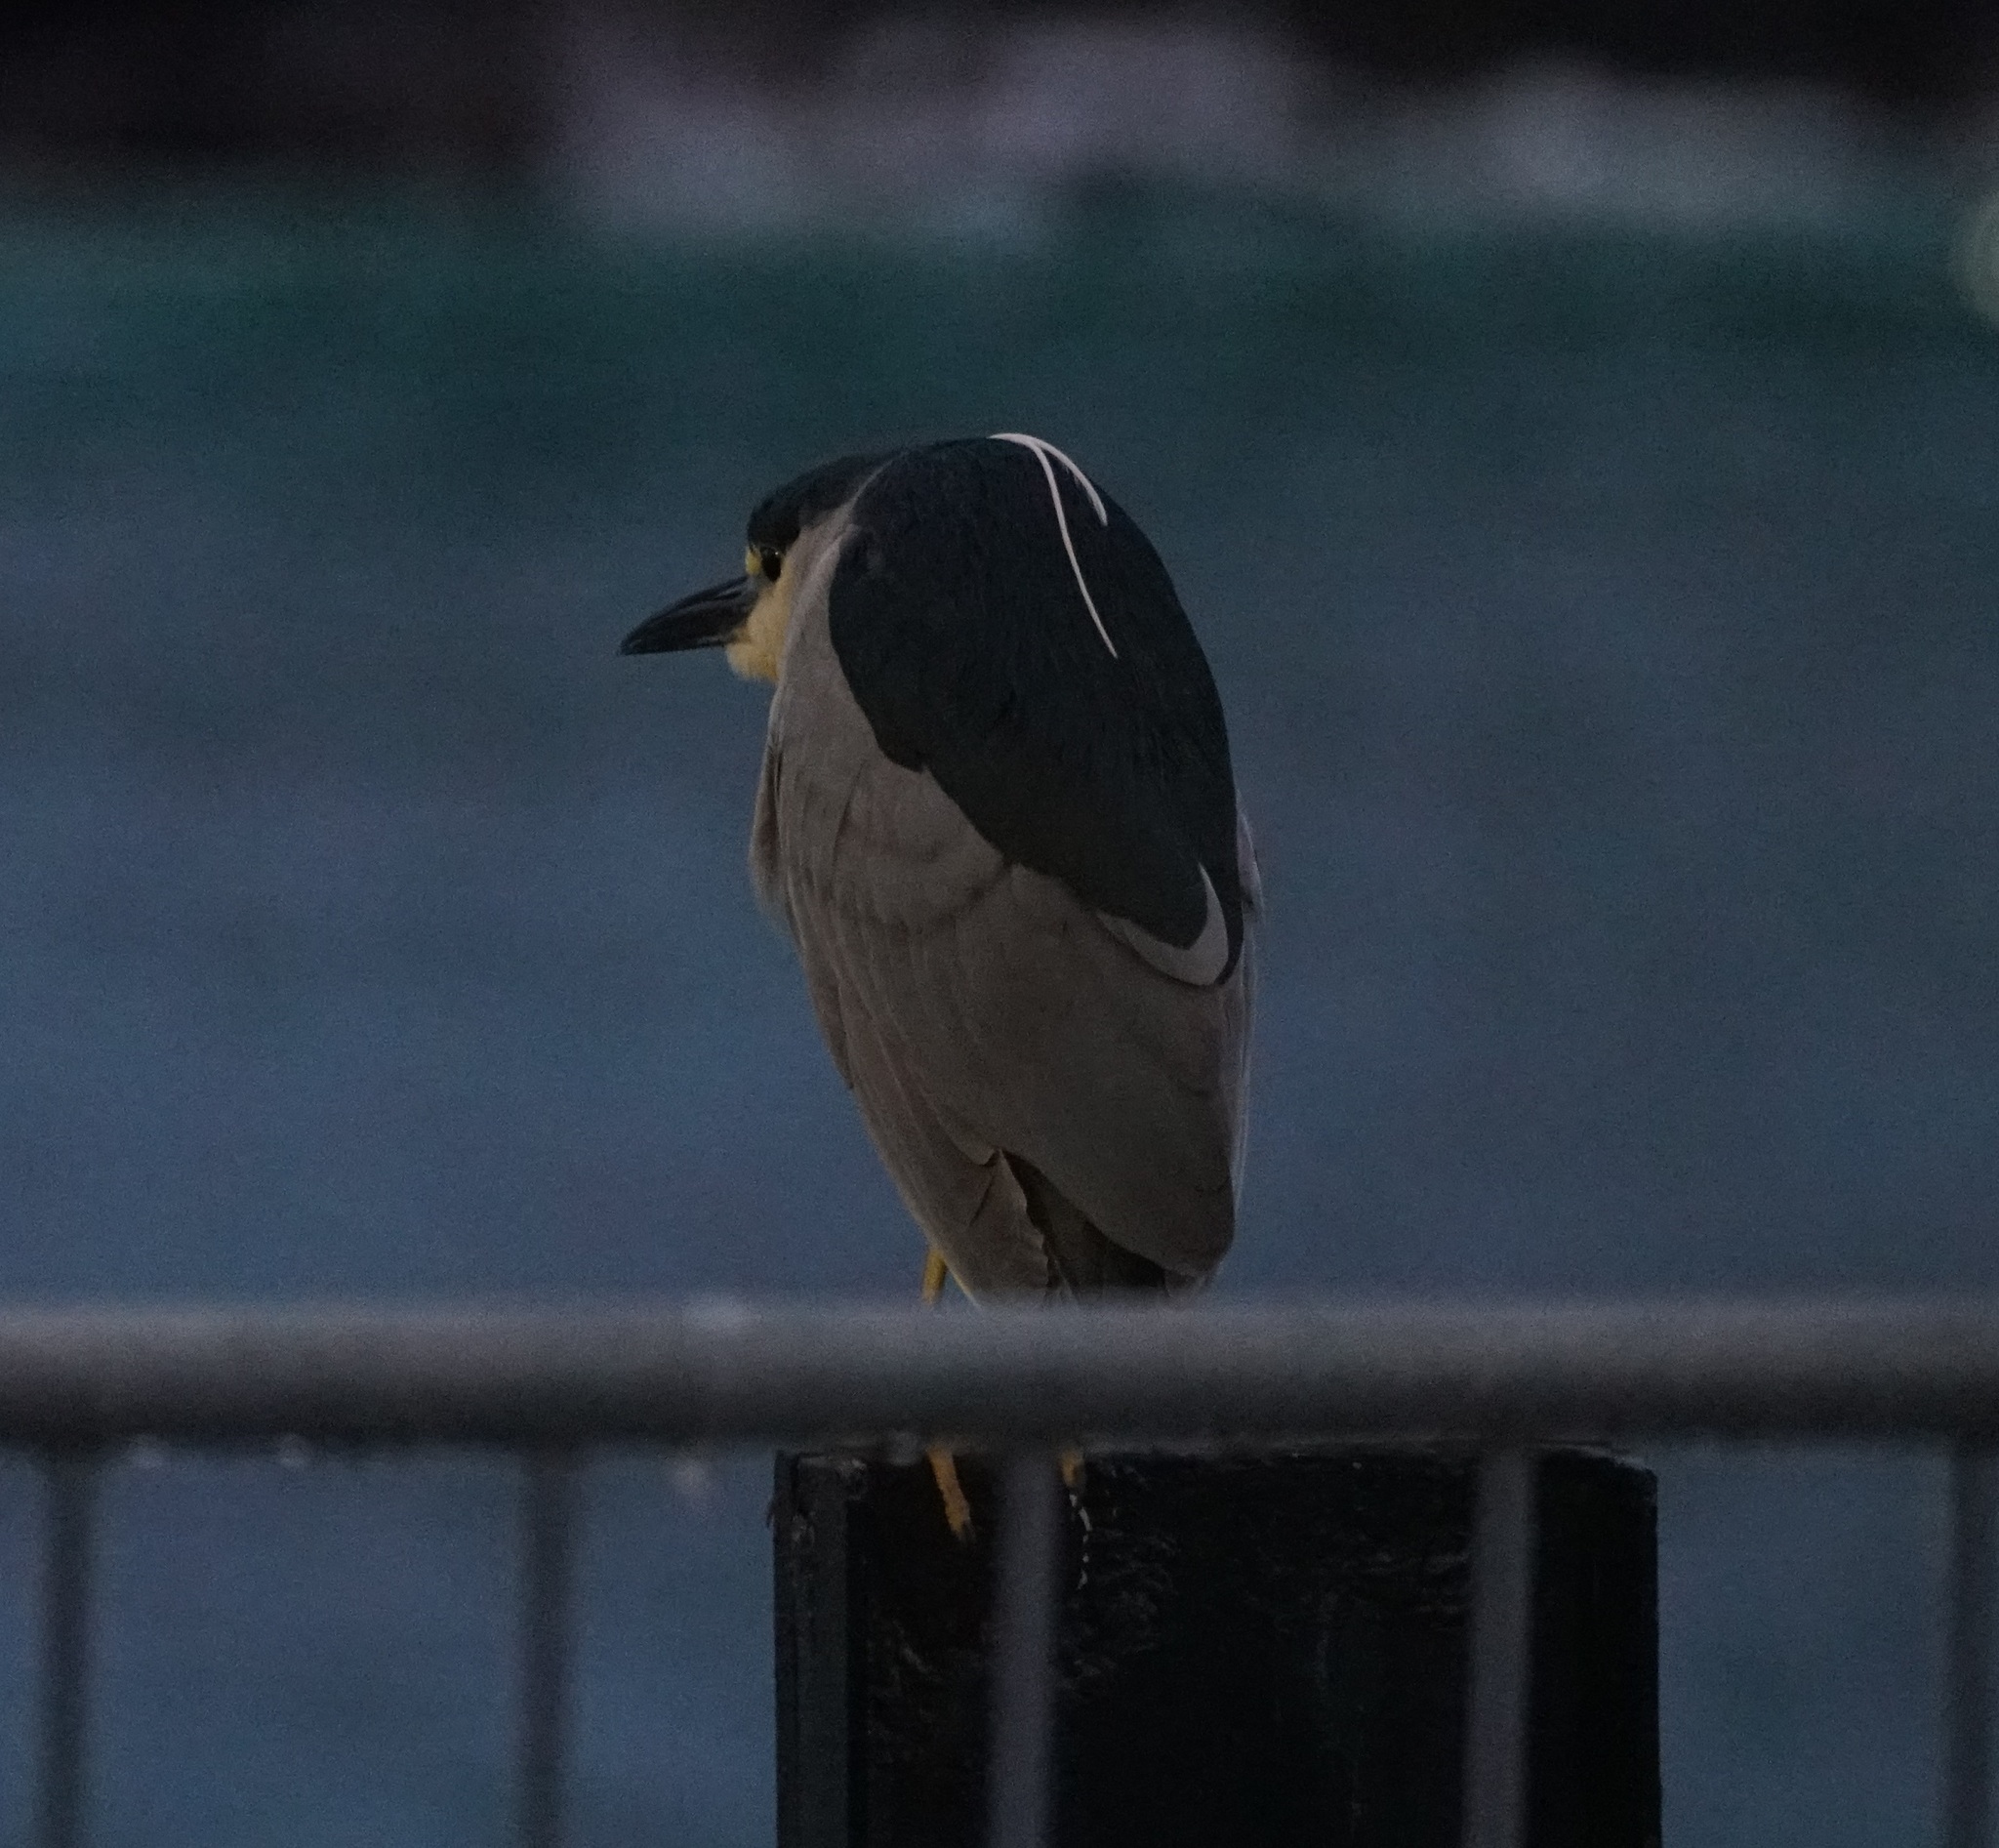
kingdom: Animalia
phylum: Chordata
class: Aves
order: Pelecaniformes
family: Ardeidae
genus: Nycticorax
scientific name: Nycticorax nycticorax
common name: Black-crowned night heron
